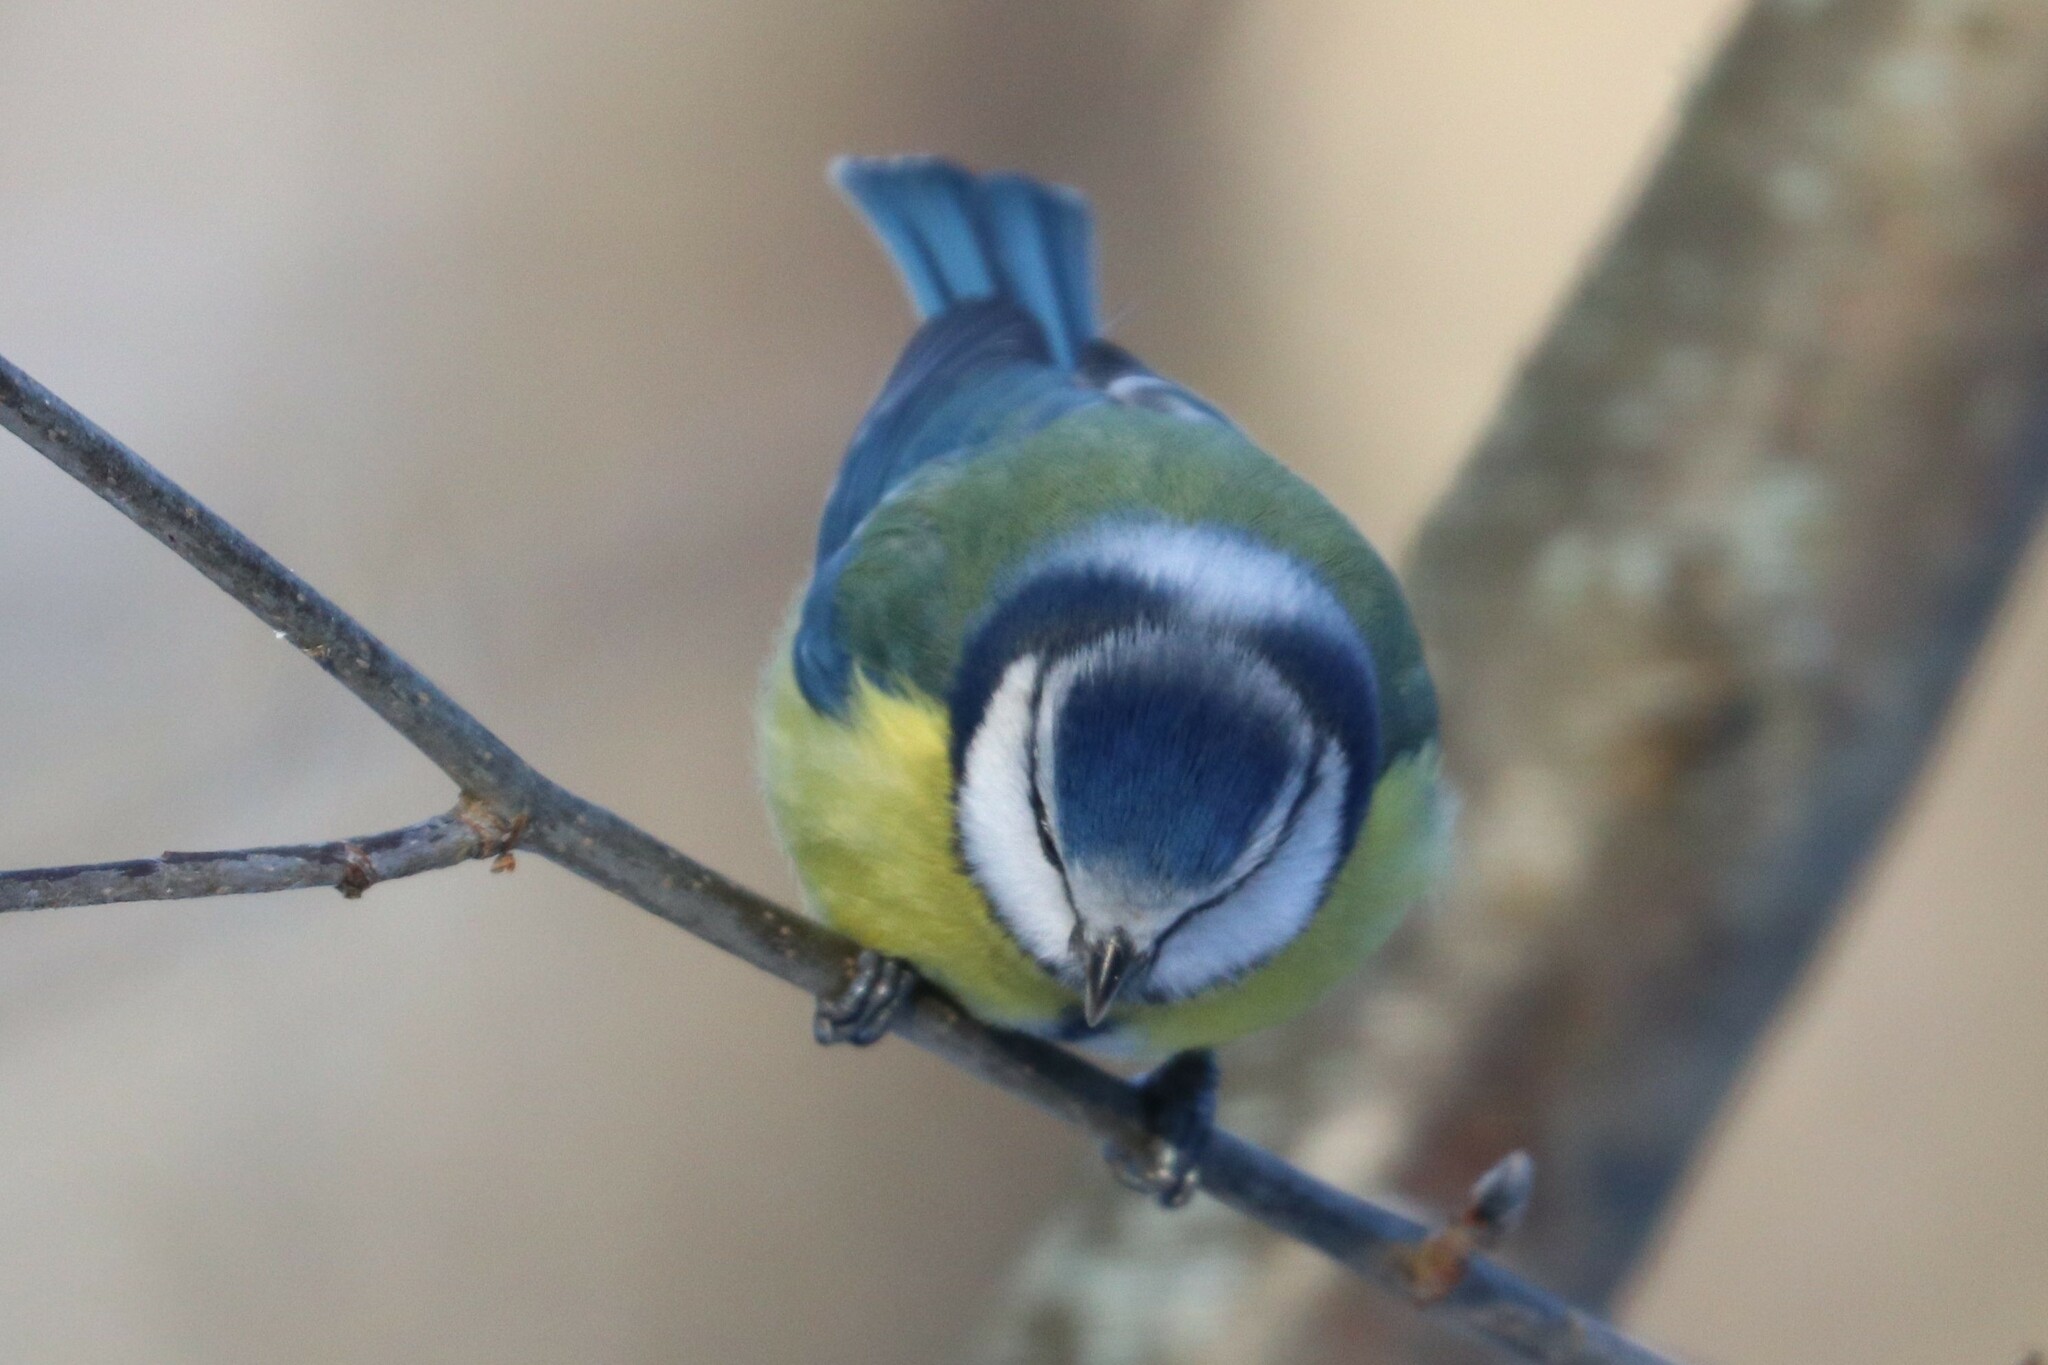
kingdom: Animalia
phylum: Chordata
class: Aves
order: Passeriformes
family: Paridae
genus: Cyanistes
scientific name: Cyanistes caeruleus
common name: Eurasian blue tit
